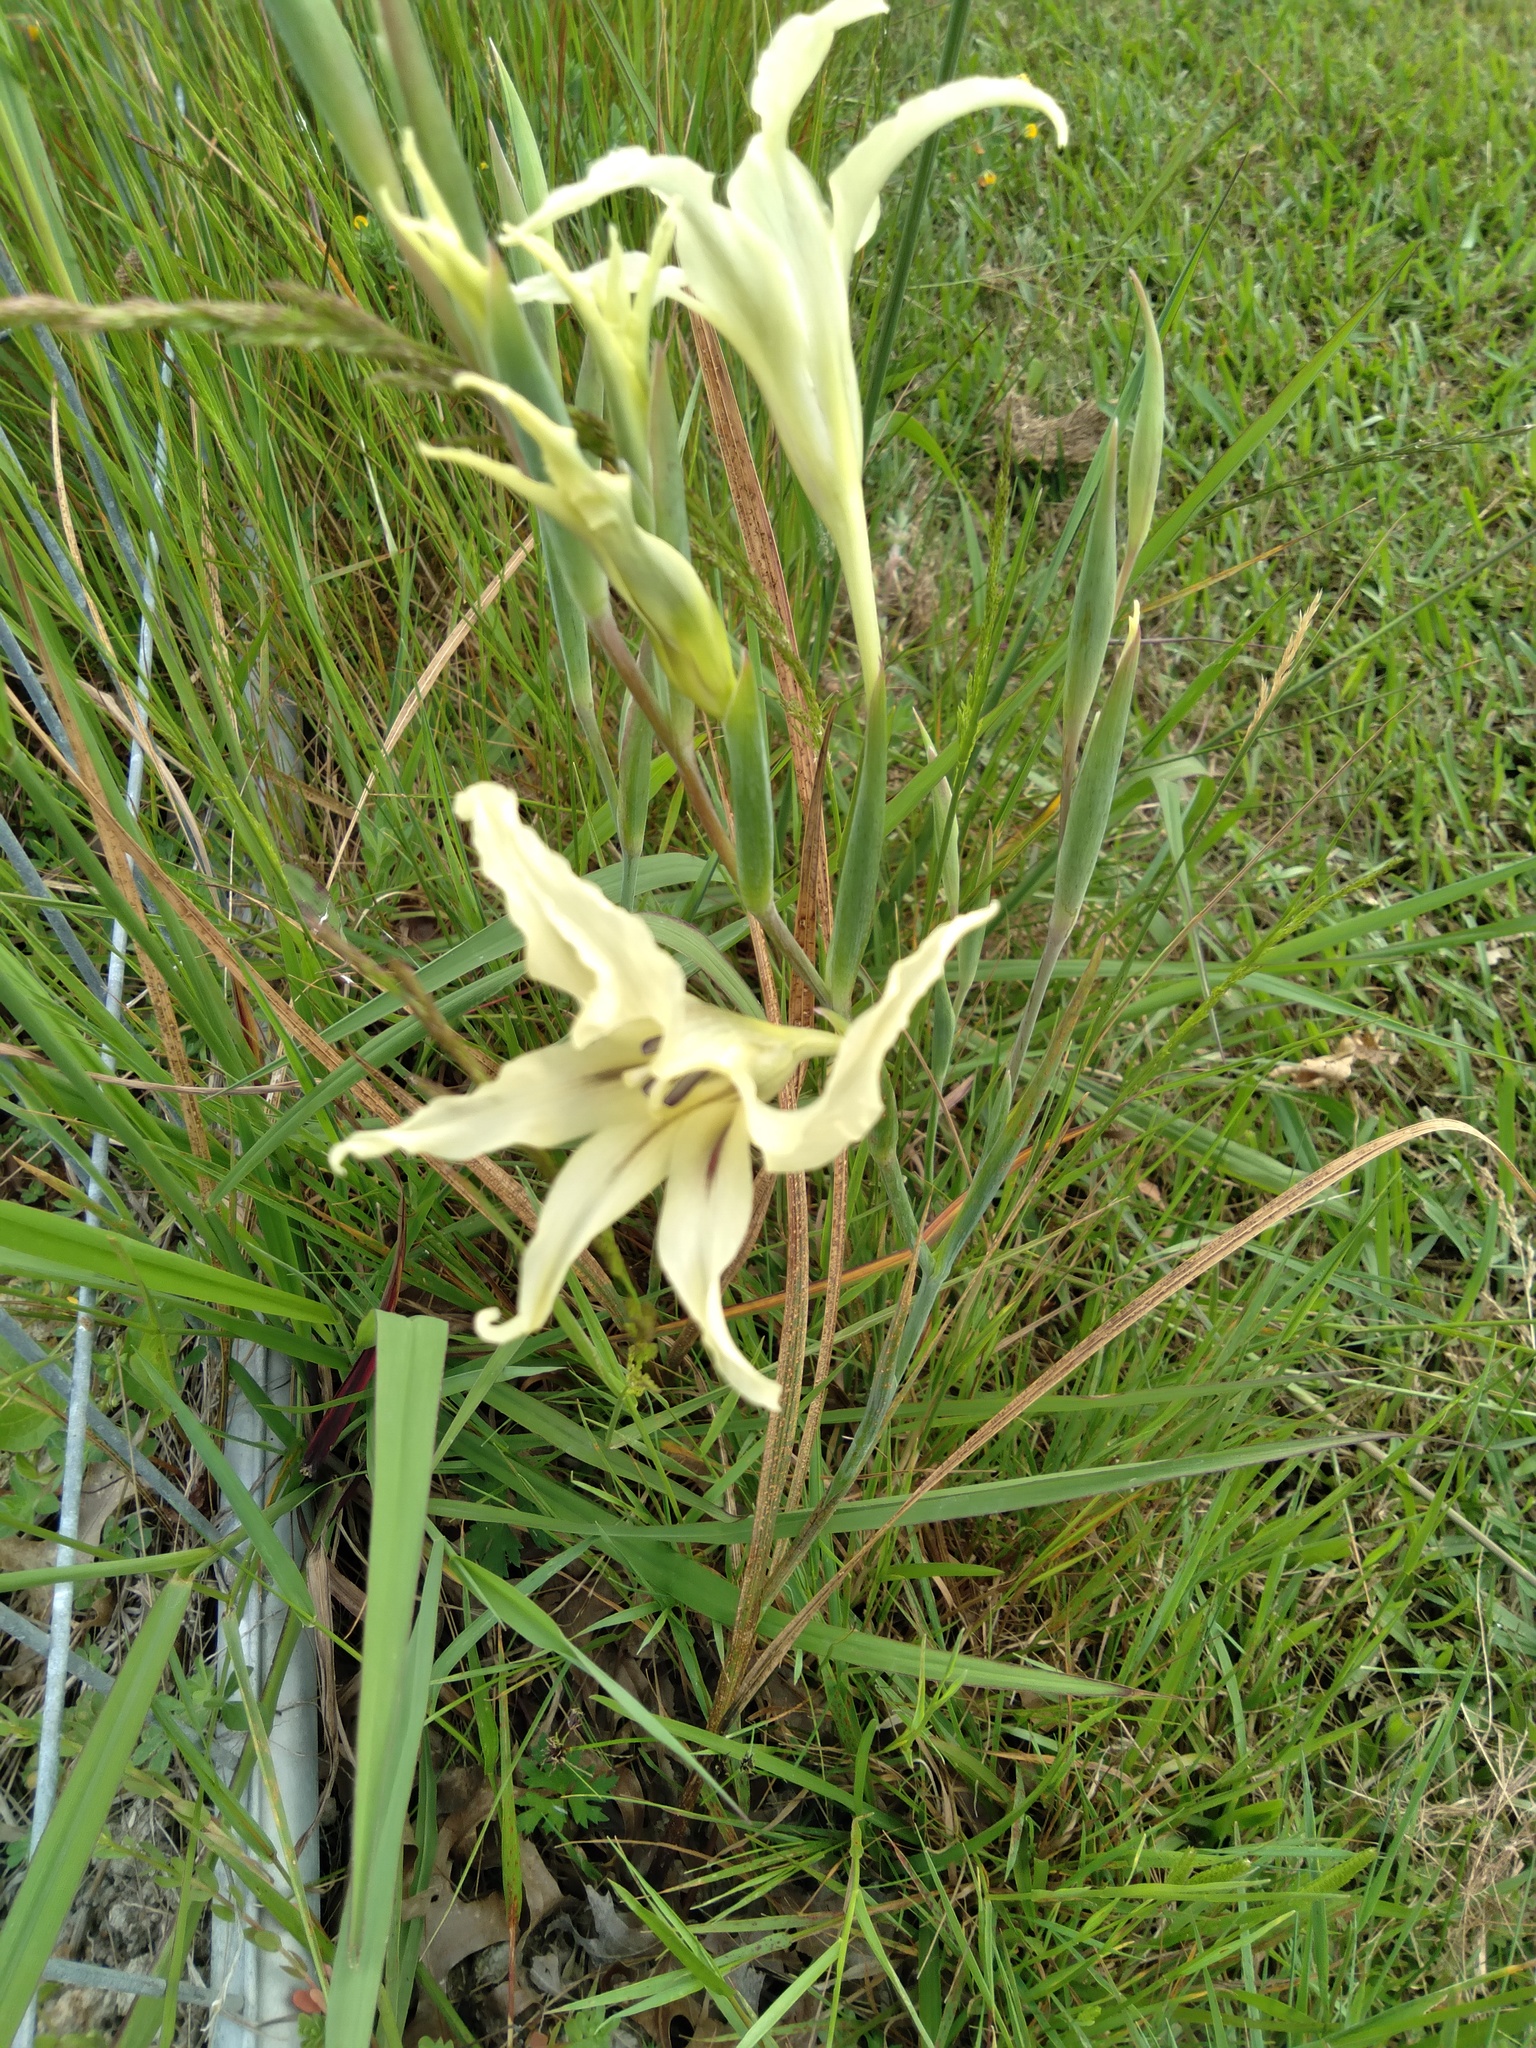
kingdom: Plantae
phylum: Tracheophyta
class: Liliopsida
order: Asparagales
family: Iridaceae
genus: Gladiolus
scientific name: Gladiolus undulatus
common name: Large painted-lady
